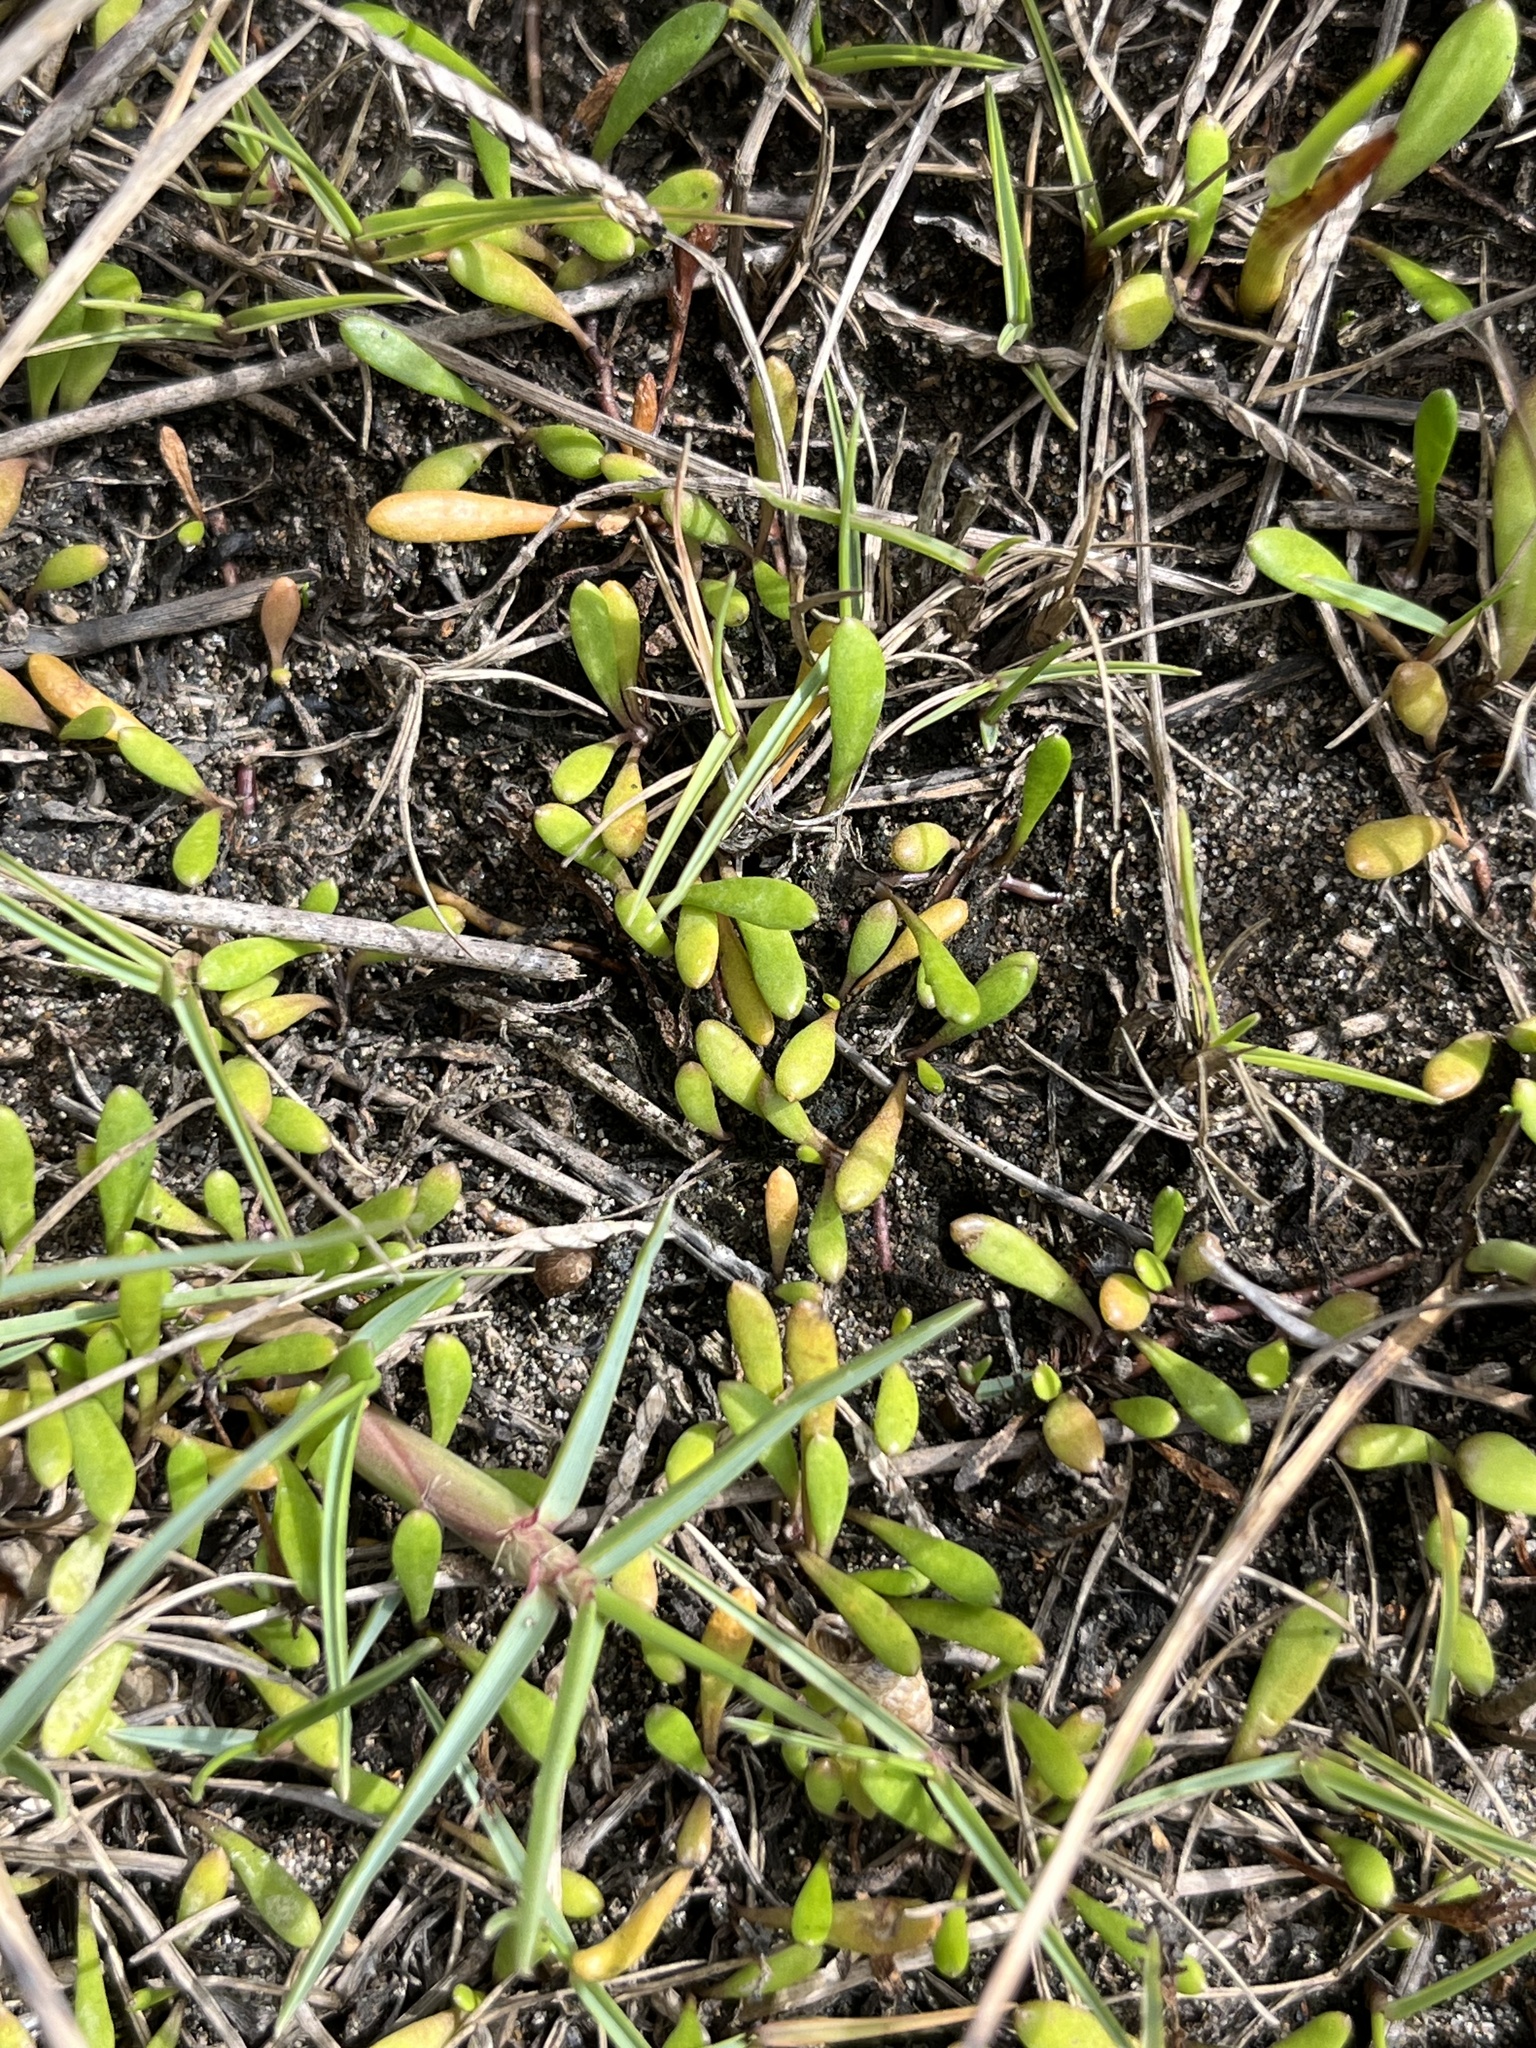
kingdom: Plantae
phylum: Tracheophyta
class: Magnoliopsida
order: Asterales
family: Goodeniaceae
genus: Goodenia
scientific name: Goodenia radicans
